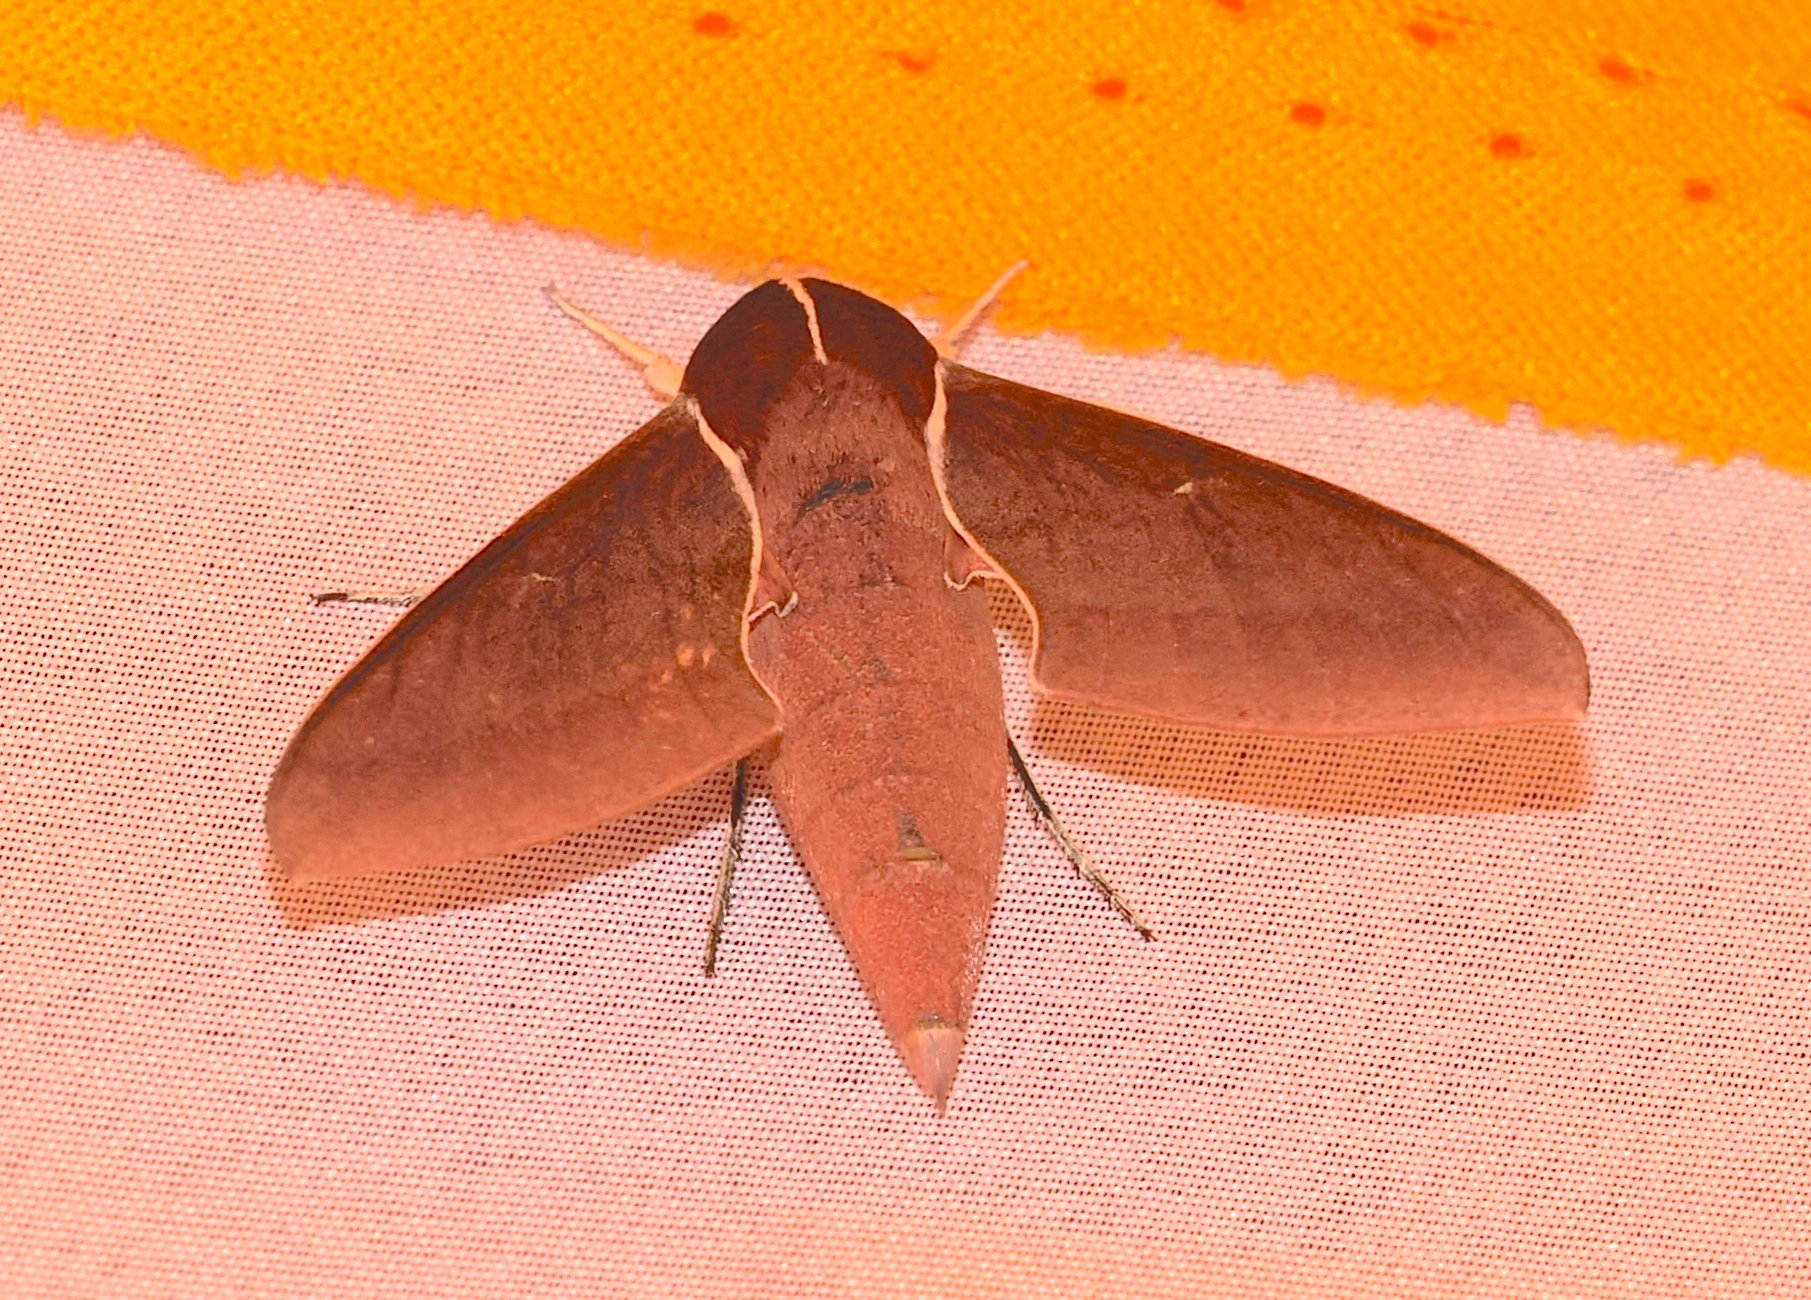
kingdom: Animalia
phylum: Arthropoda
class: Insecta
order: Lepidoptera
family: Sphingidae
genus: Theretra
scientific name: Theretra pallicosta
